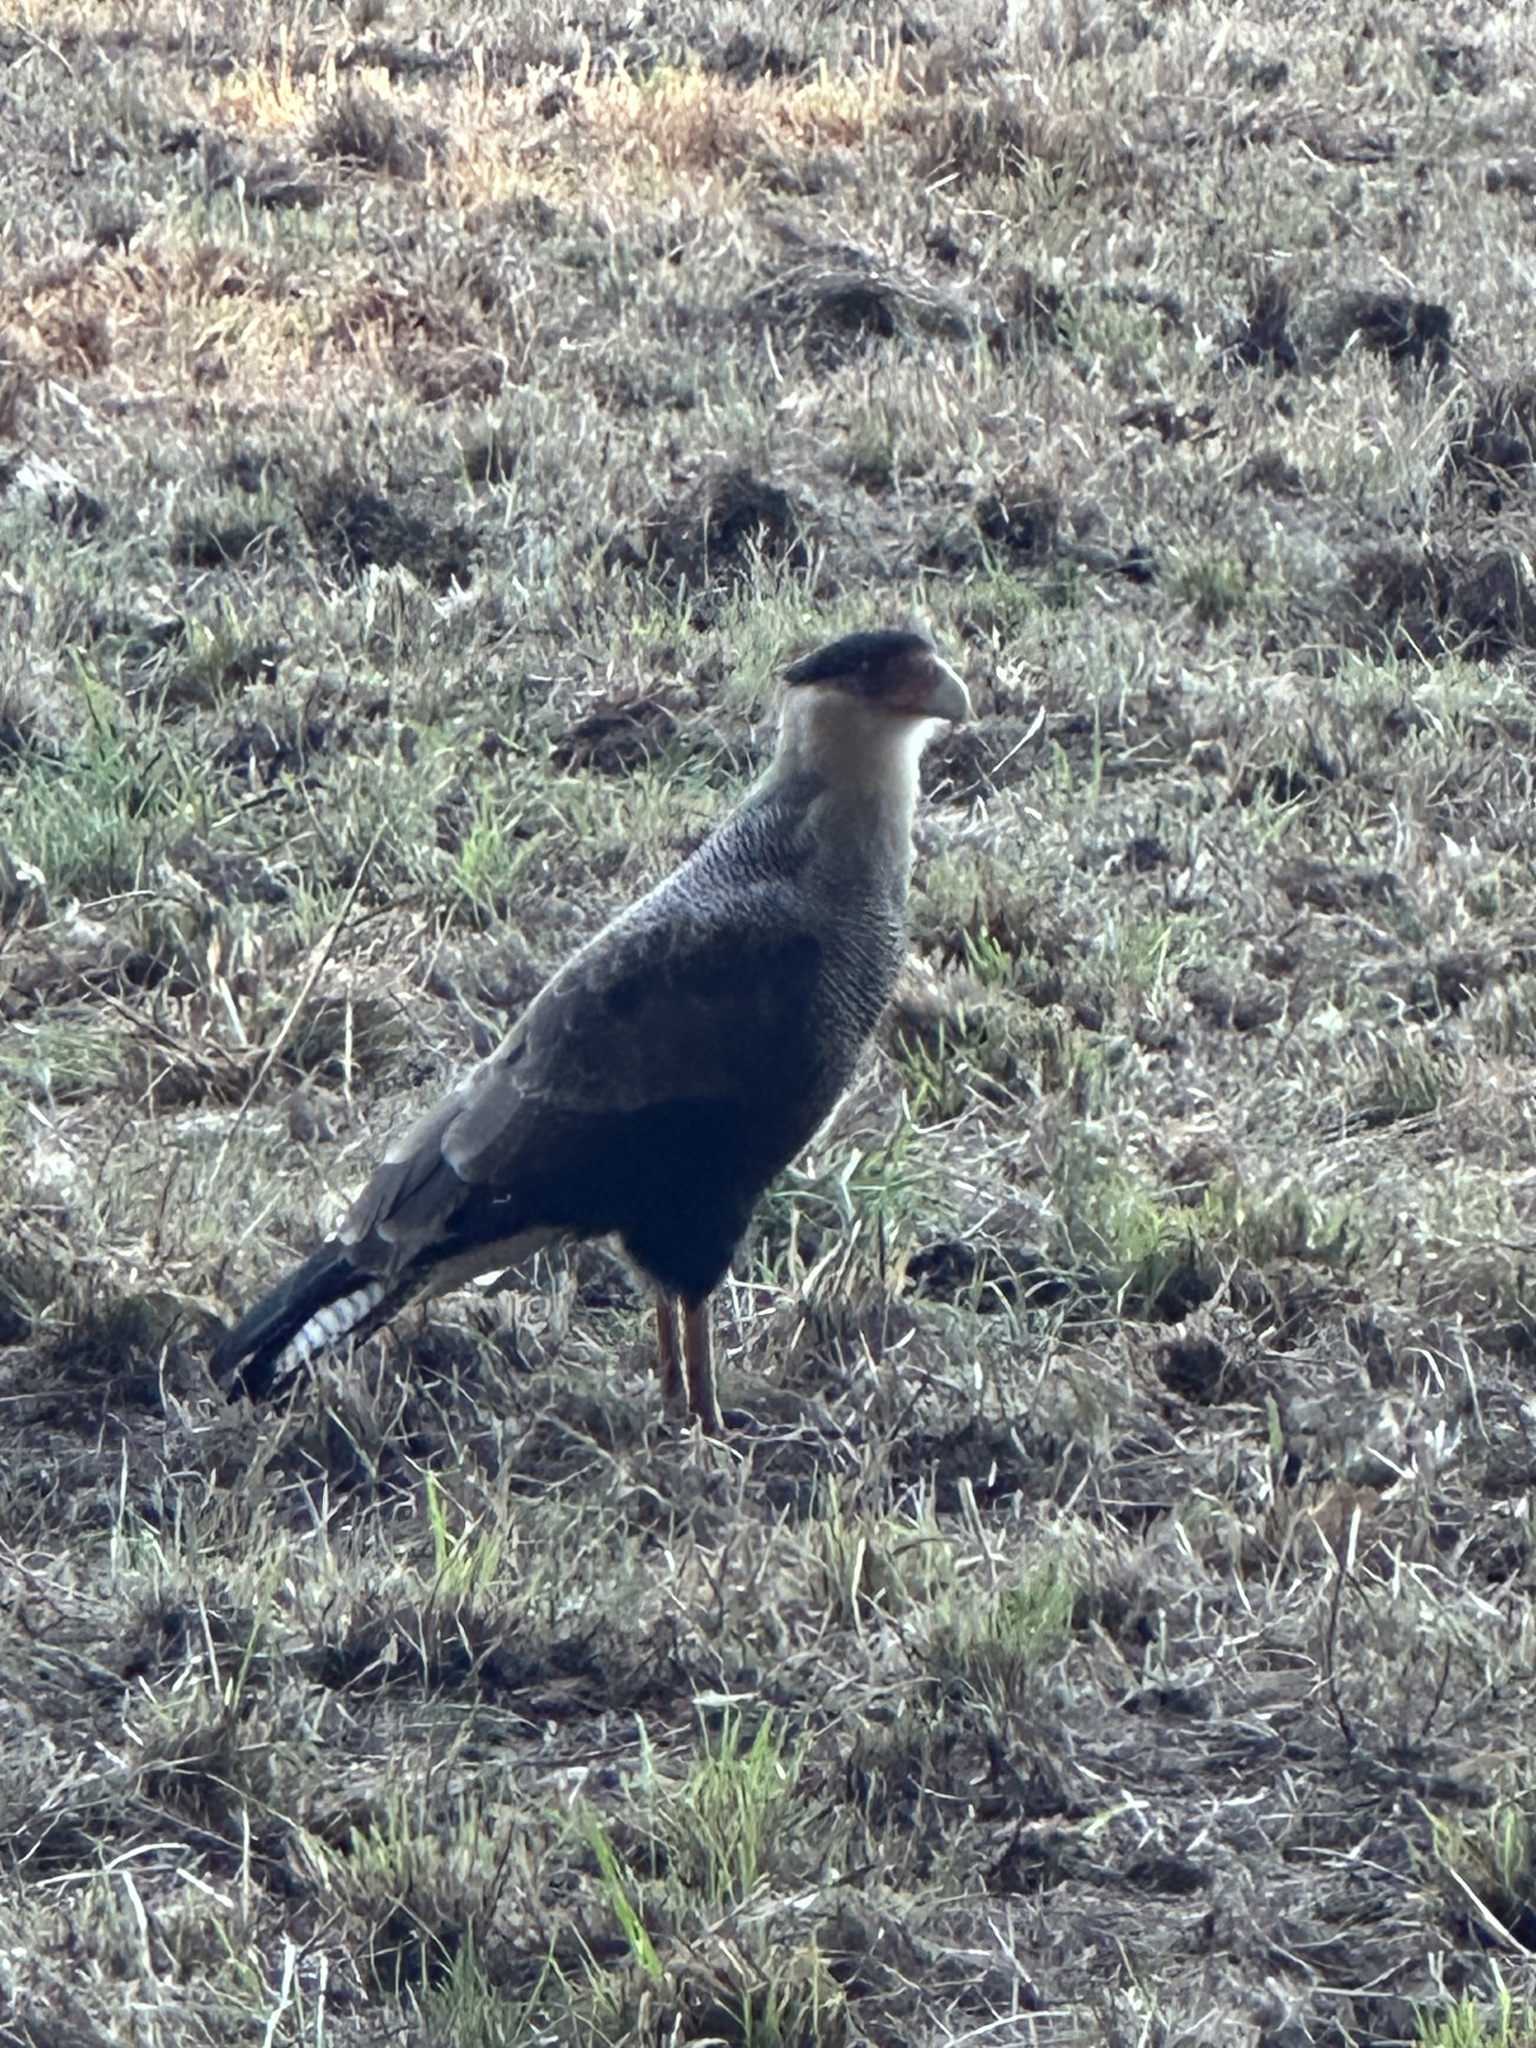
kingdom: Animalia
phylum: Chordata
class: Aves
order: Falconiformes
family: Falconidae
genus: Caracara
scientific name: Caracara plancus
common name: Southern caracara
